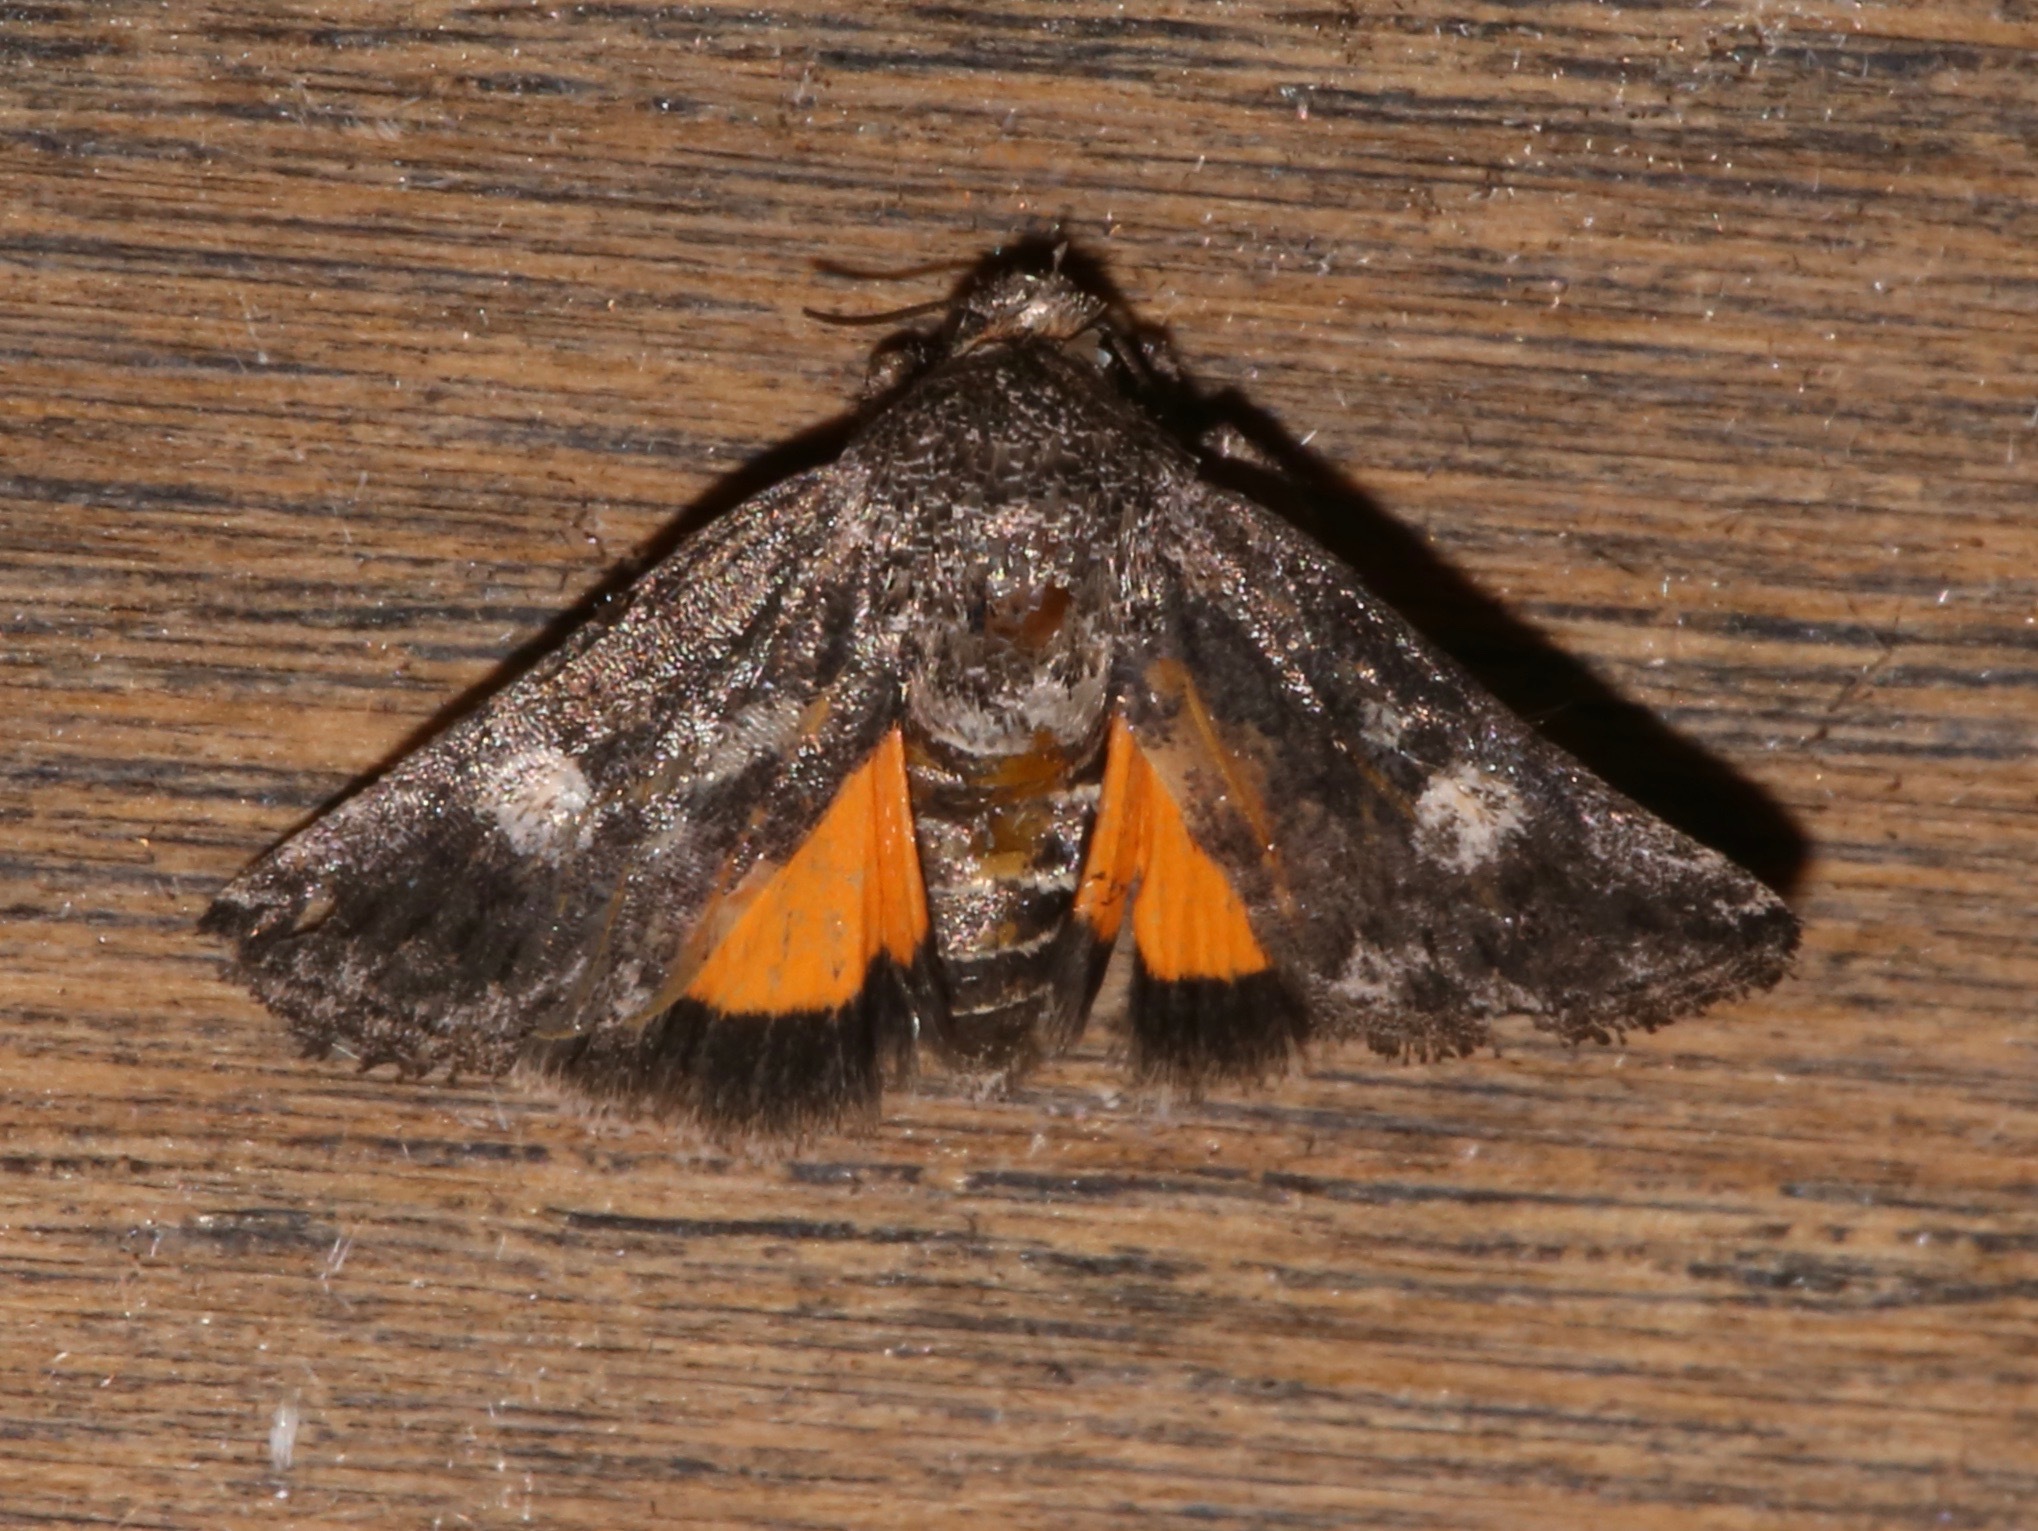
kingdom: Animalia
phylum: Arthropoda
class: Insecta
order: Lepidoptera
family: Noctuidae
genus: Copanarta
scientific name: Copanarta aurea
